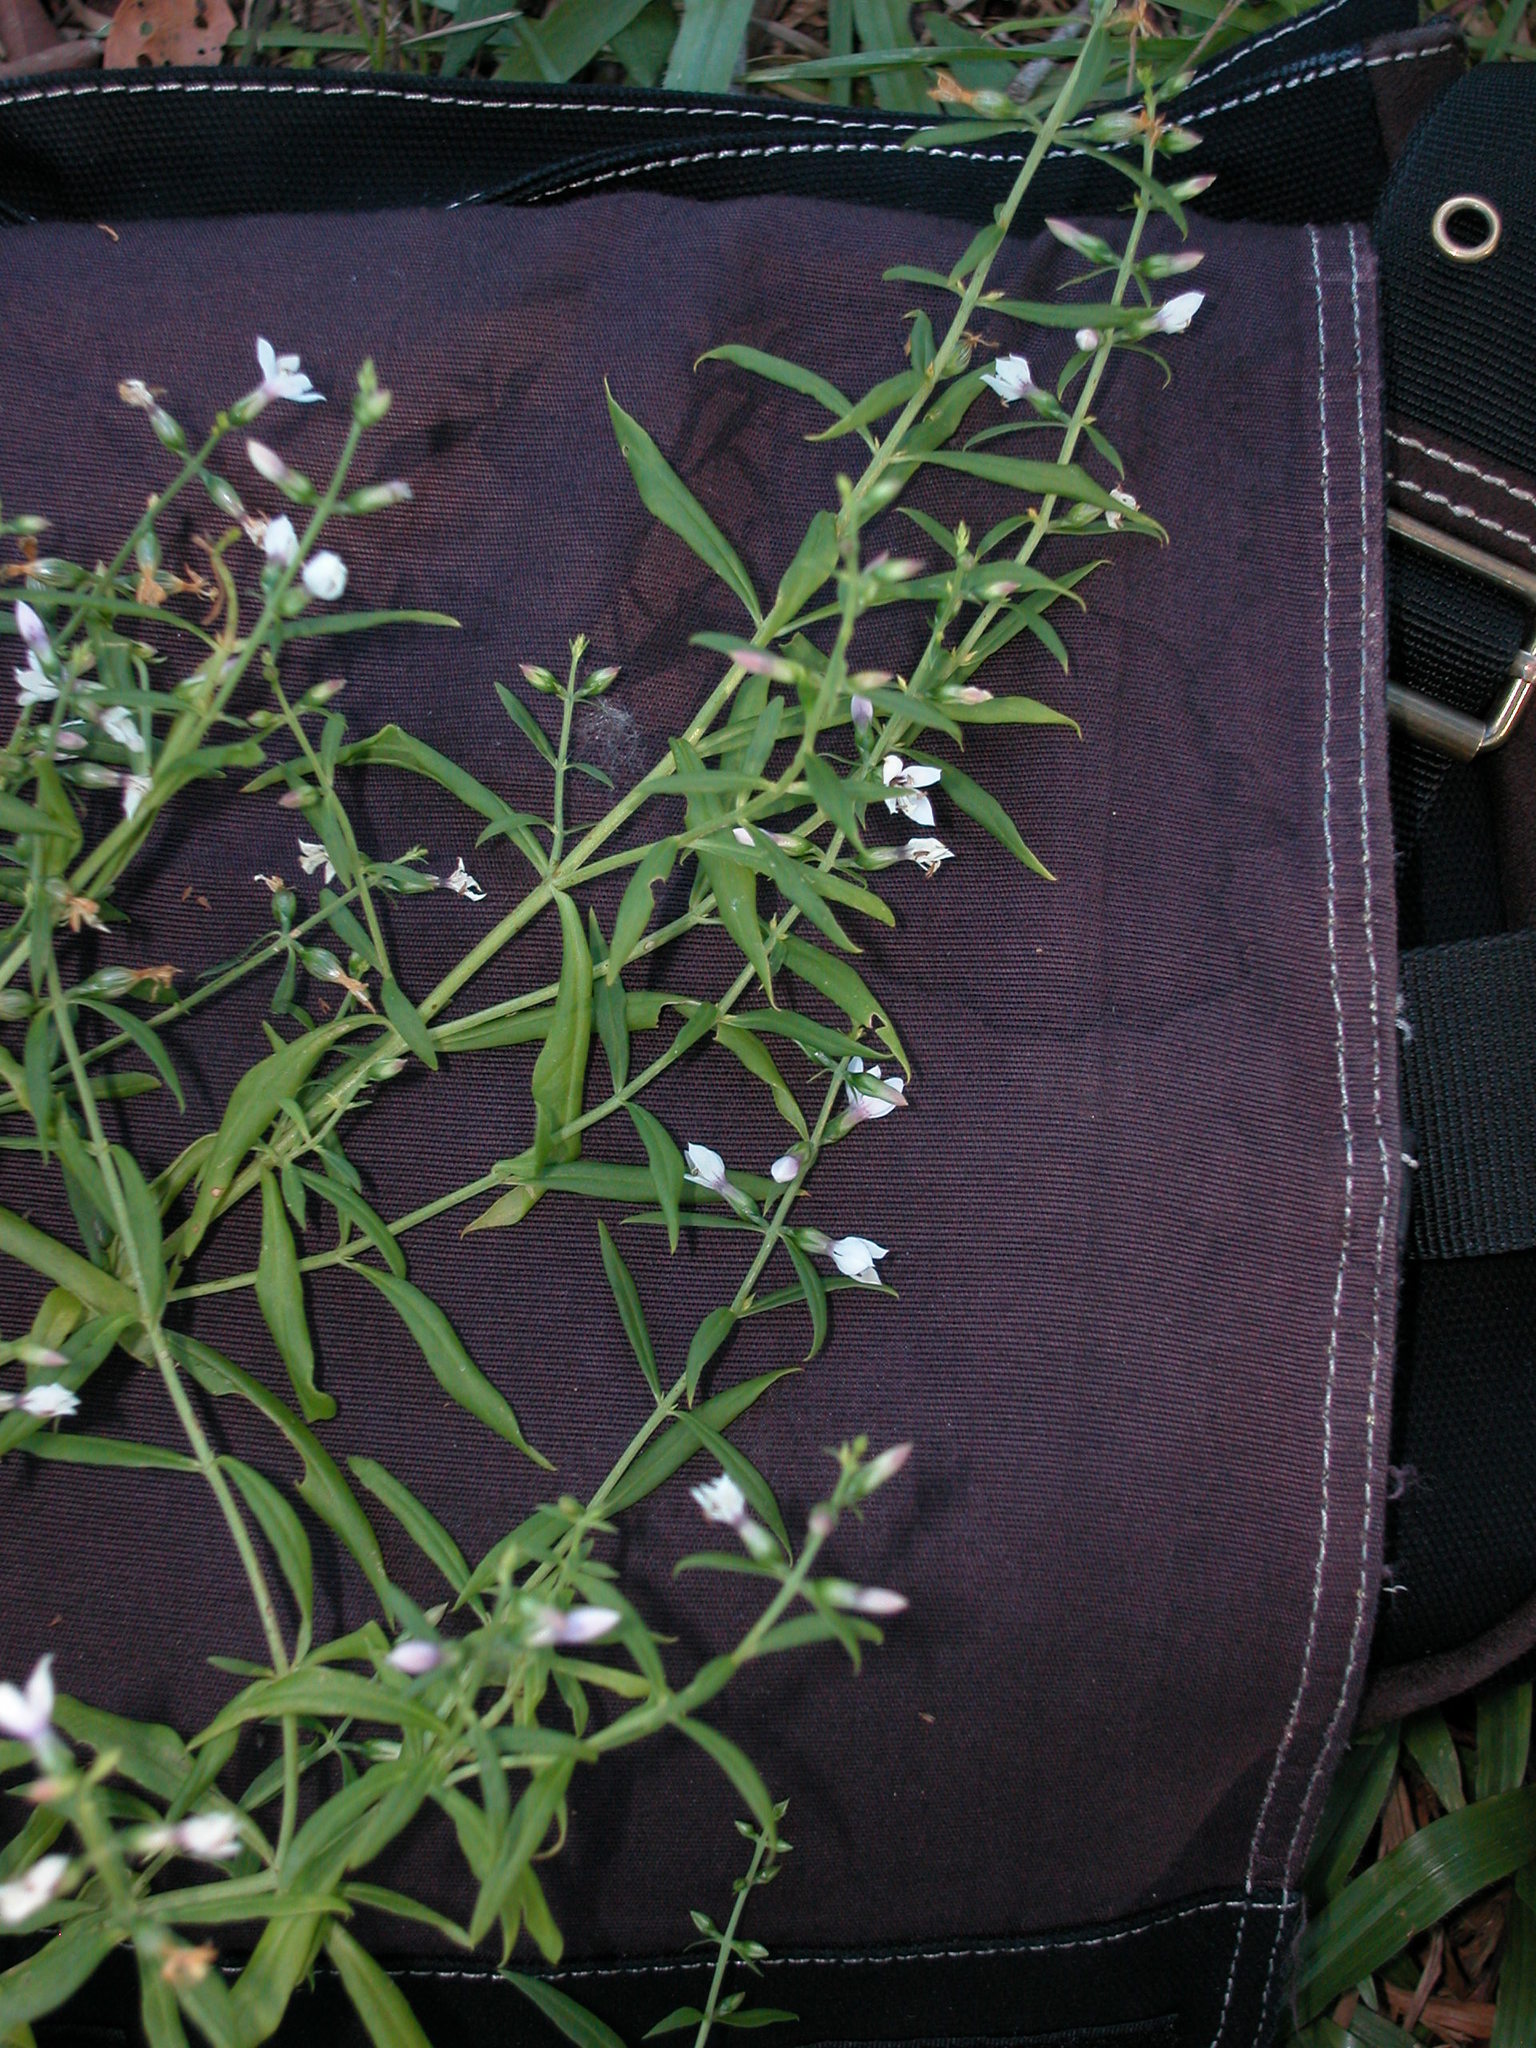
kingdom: Plantae
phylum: Tracheophyta
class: Magnoliopsida
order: Gentianales
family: Gentianaceae
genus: Coutoubea
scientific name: Coutoubea ramosa
